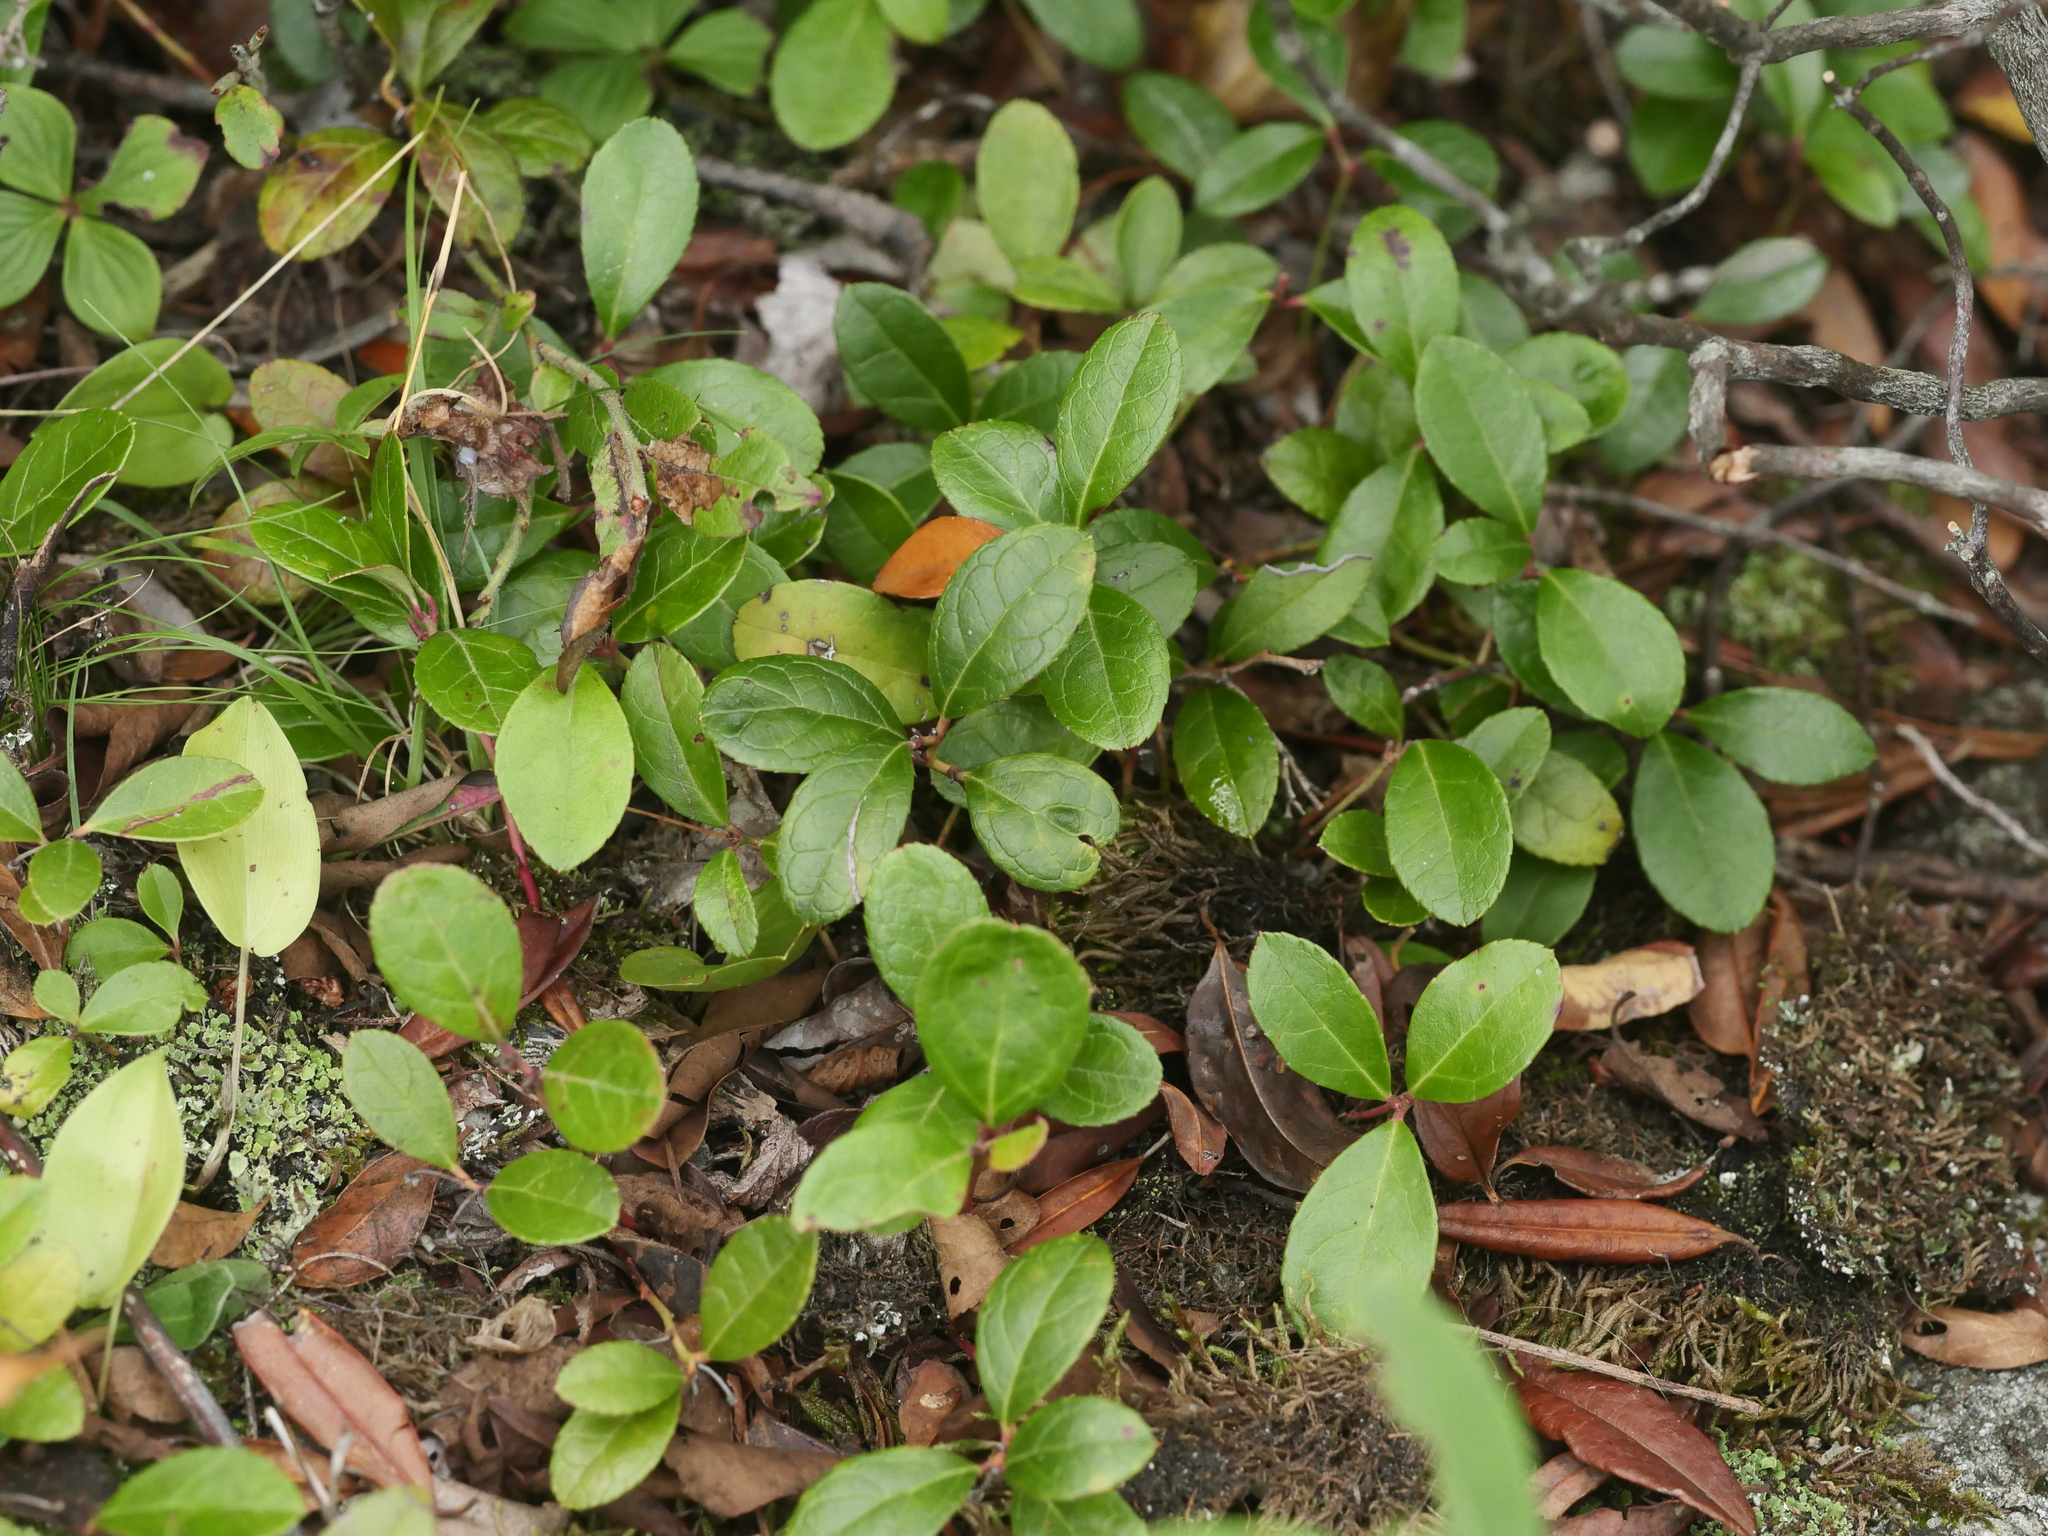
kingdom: Plantae
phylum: Tracheophyta
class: Magnoliopsida
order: Ericales
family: Ericaceae
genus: Gaultheria
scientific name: Gaultheria procumbens
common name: Checkerberry
